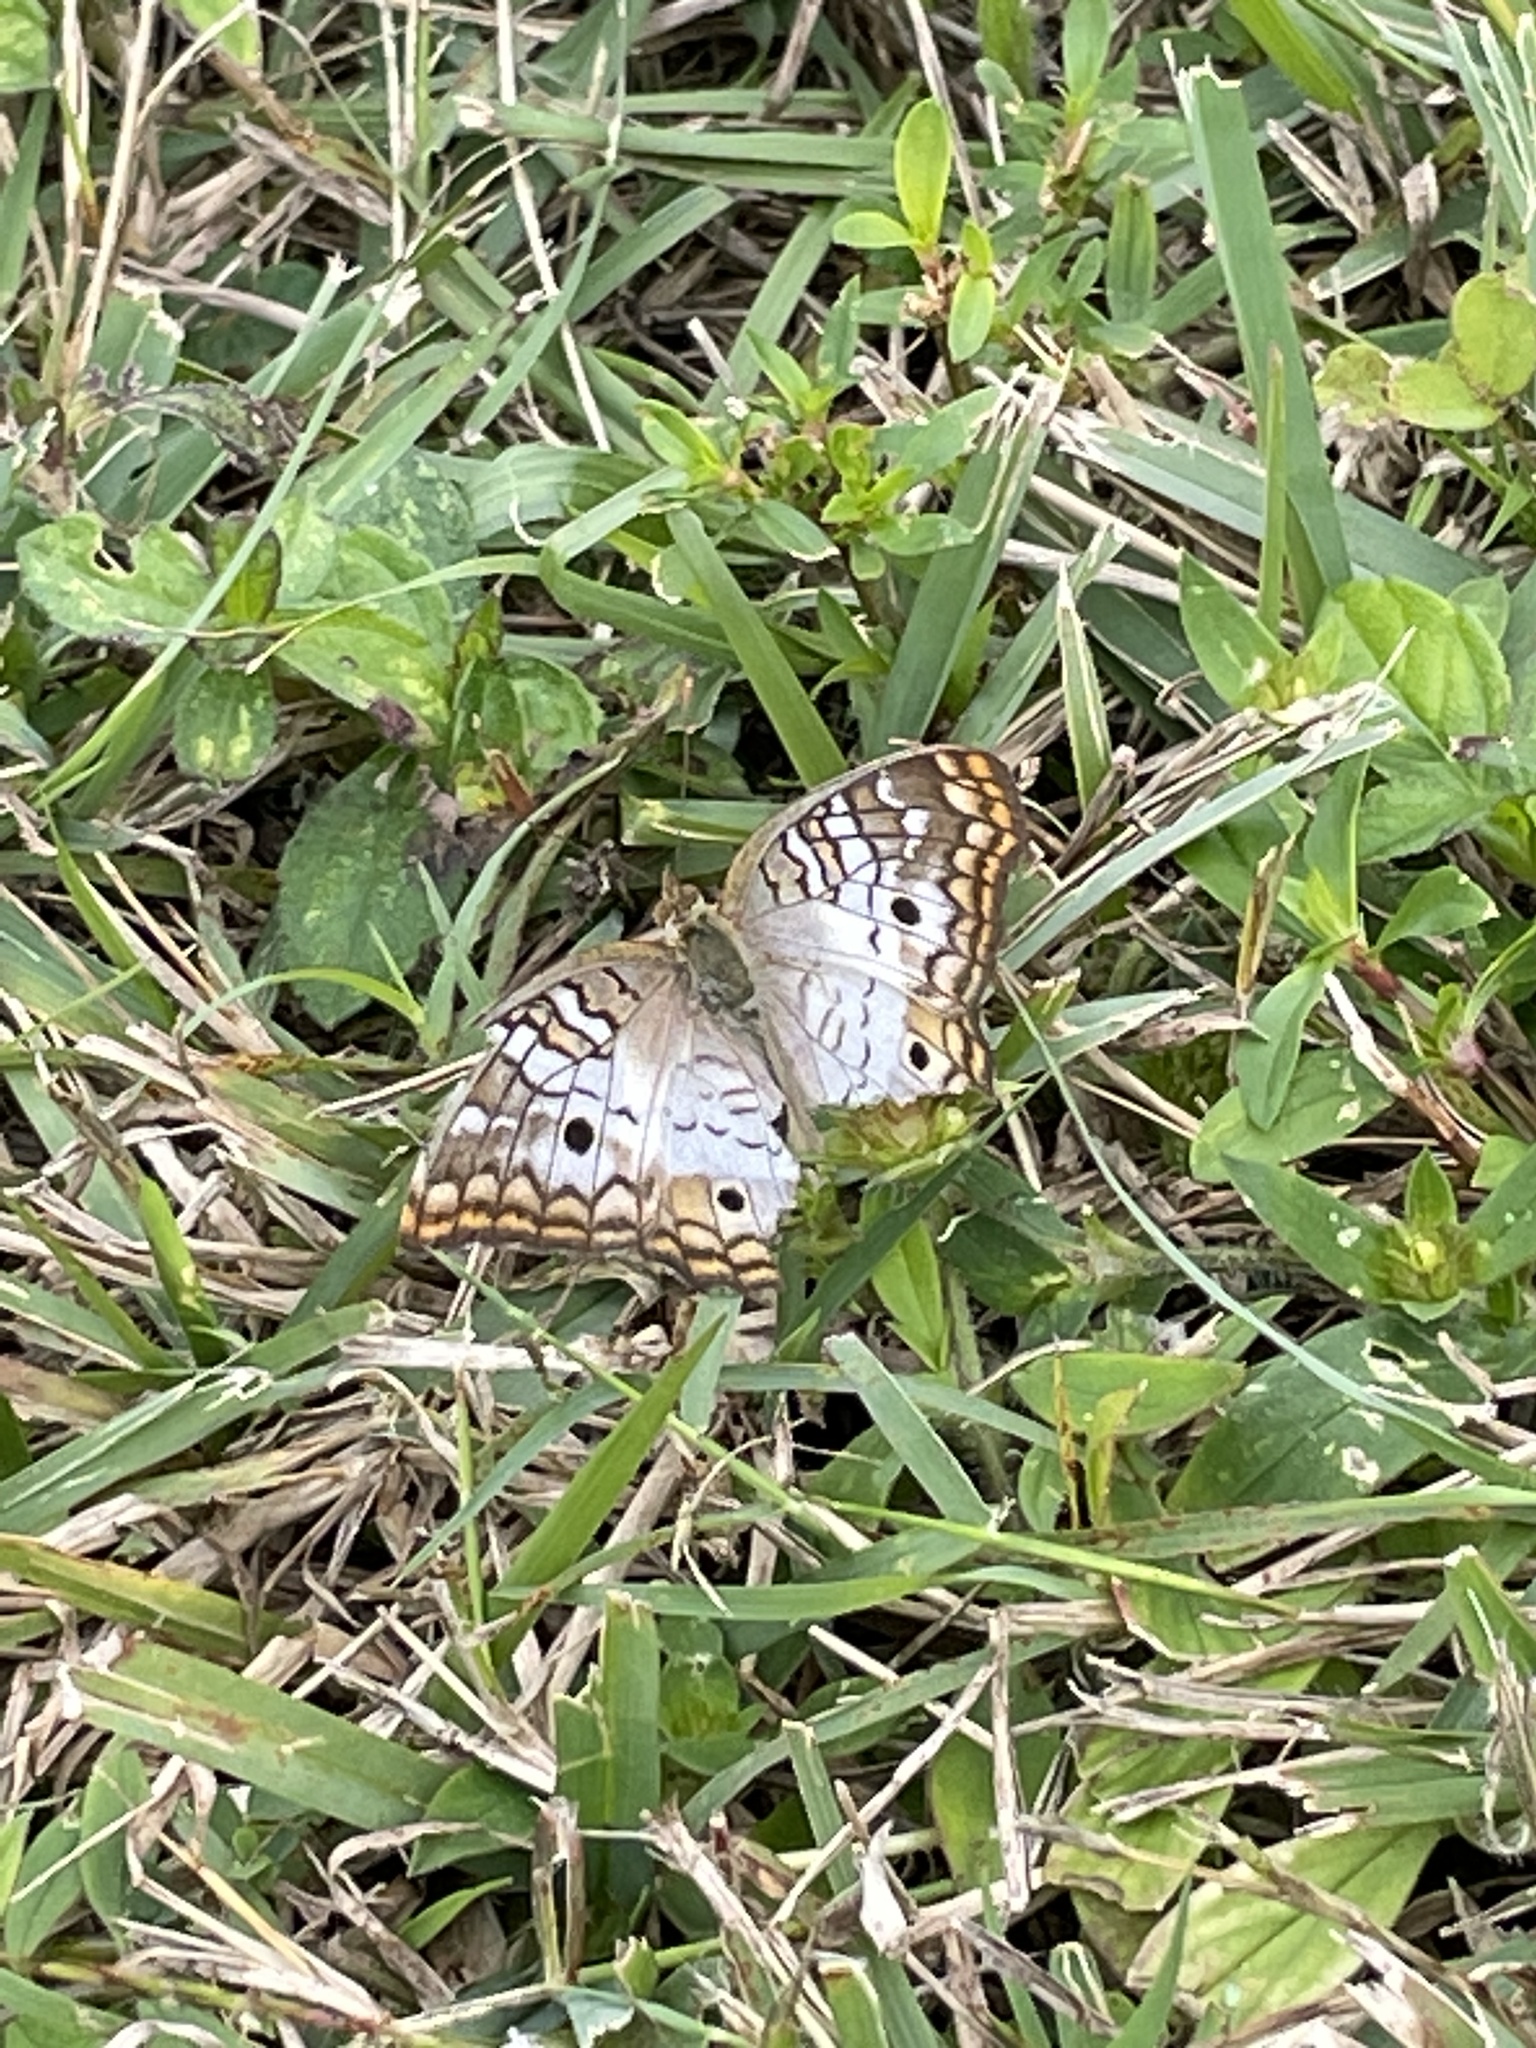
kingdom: Animalia
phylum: Arthropoda
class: Insecta
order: Lepidoptera
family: Nymphalidae
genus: Anartia
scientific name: Anartia jatrophae
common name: White peacock
